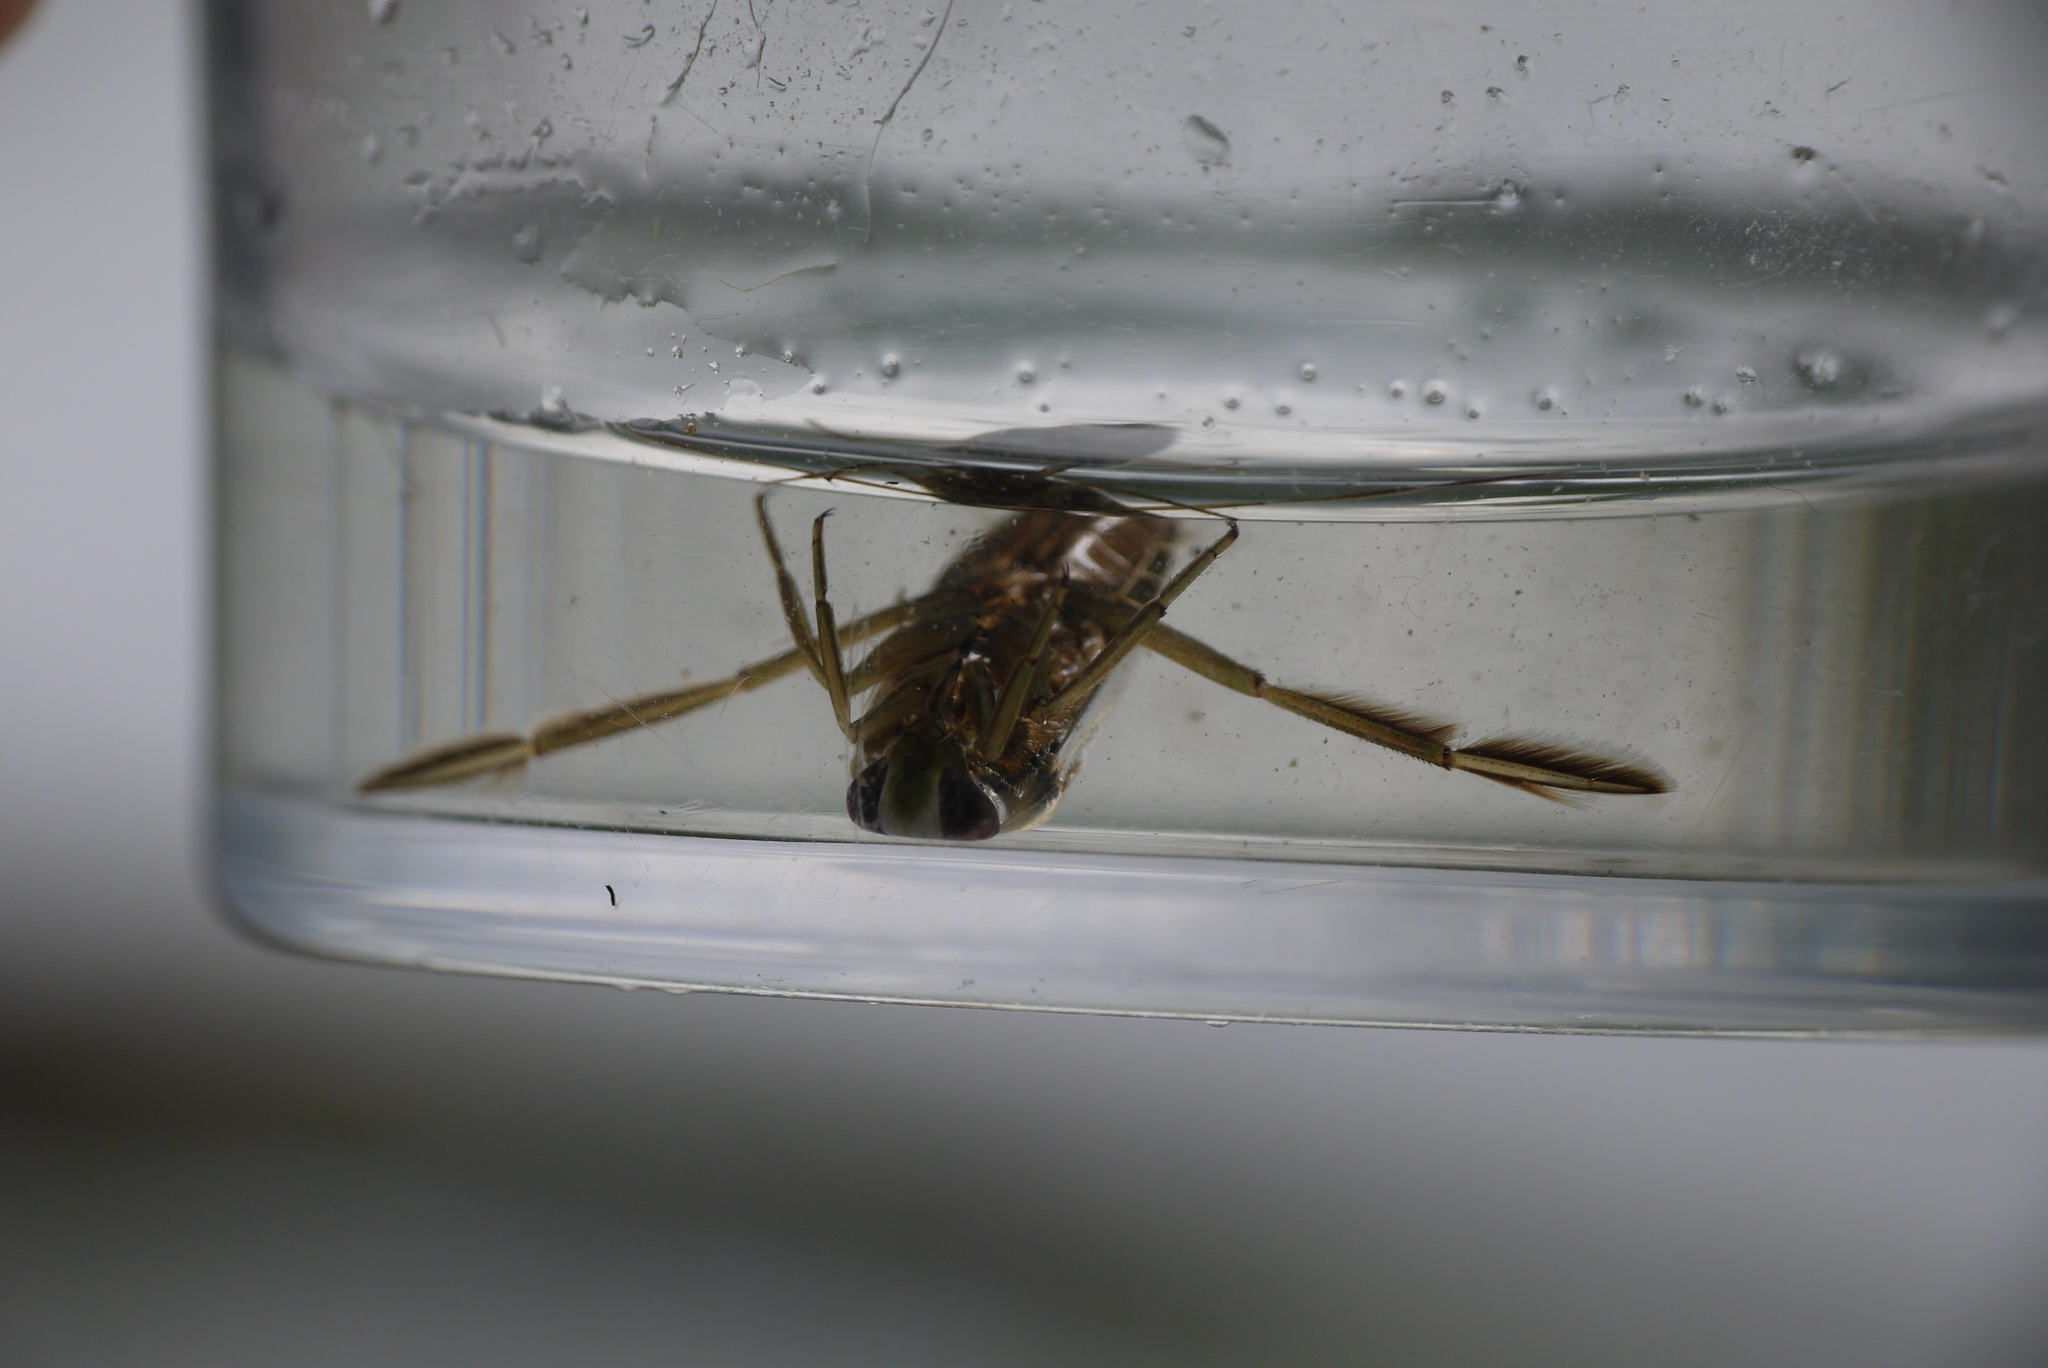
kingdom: Animalia
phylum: Arthropoda
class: Insecta
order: Hemiptera
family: Notonectidae
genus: Notonecta
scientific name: Notonecta
